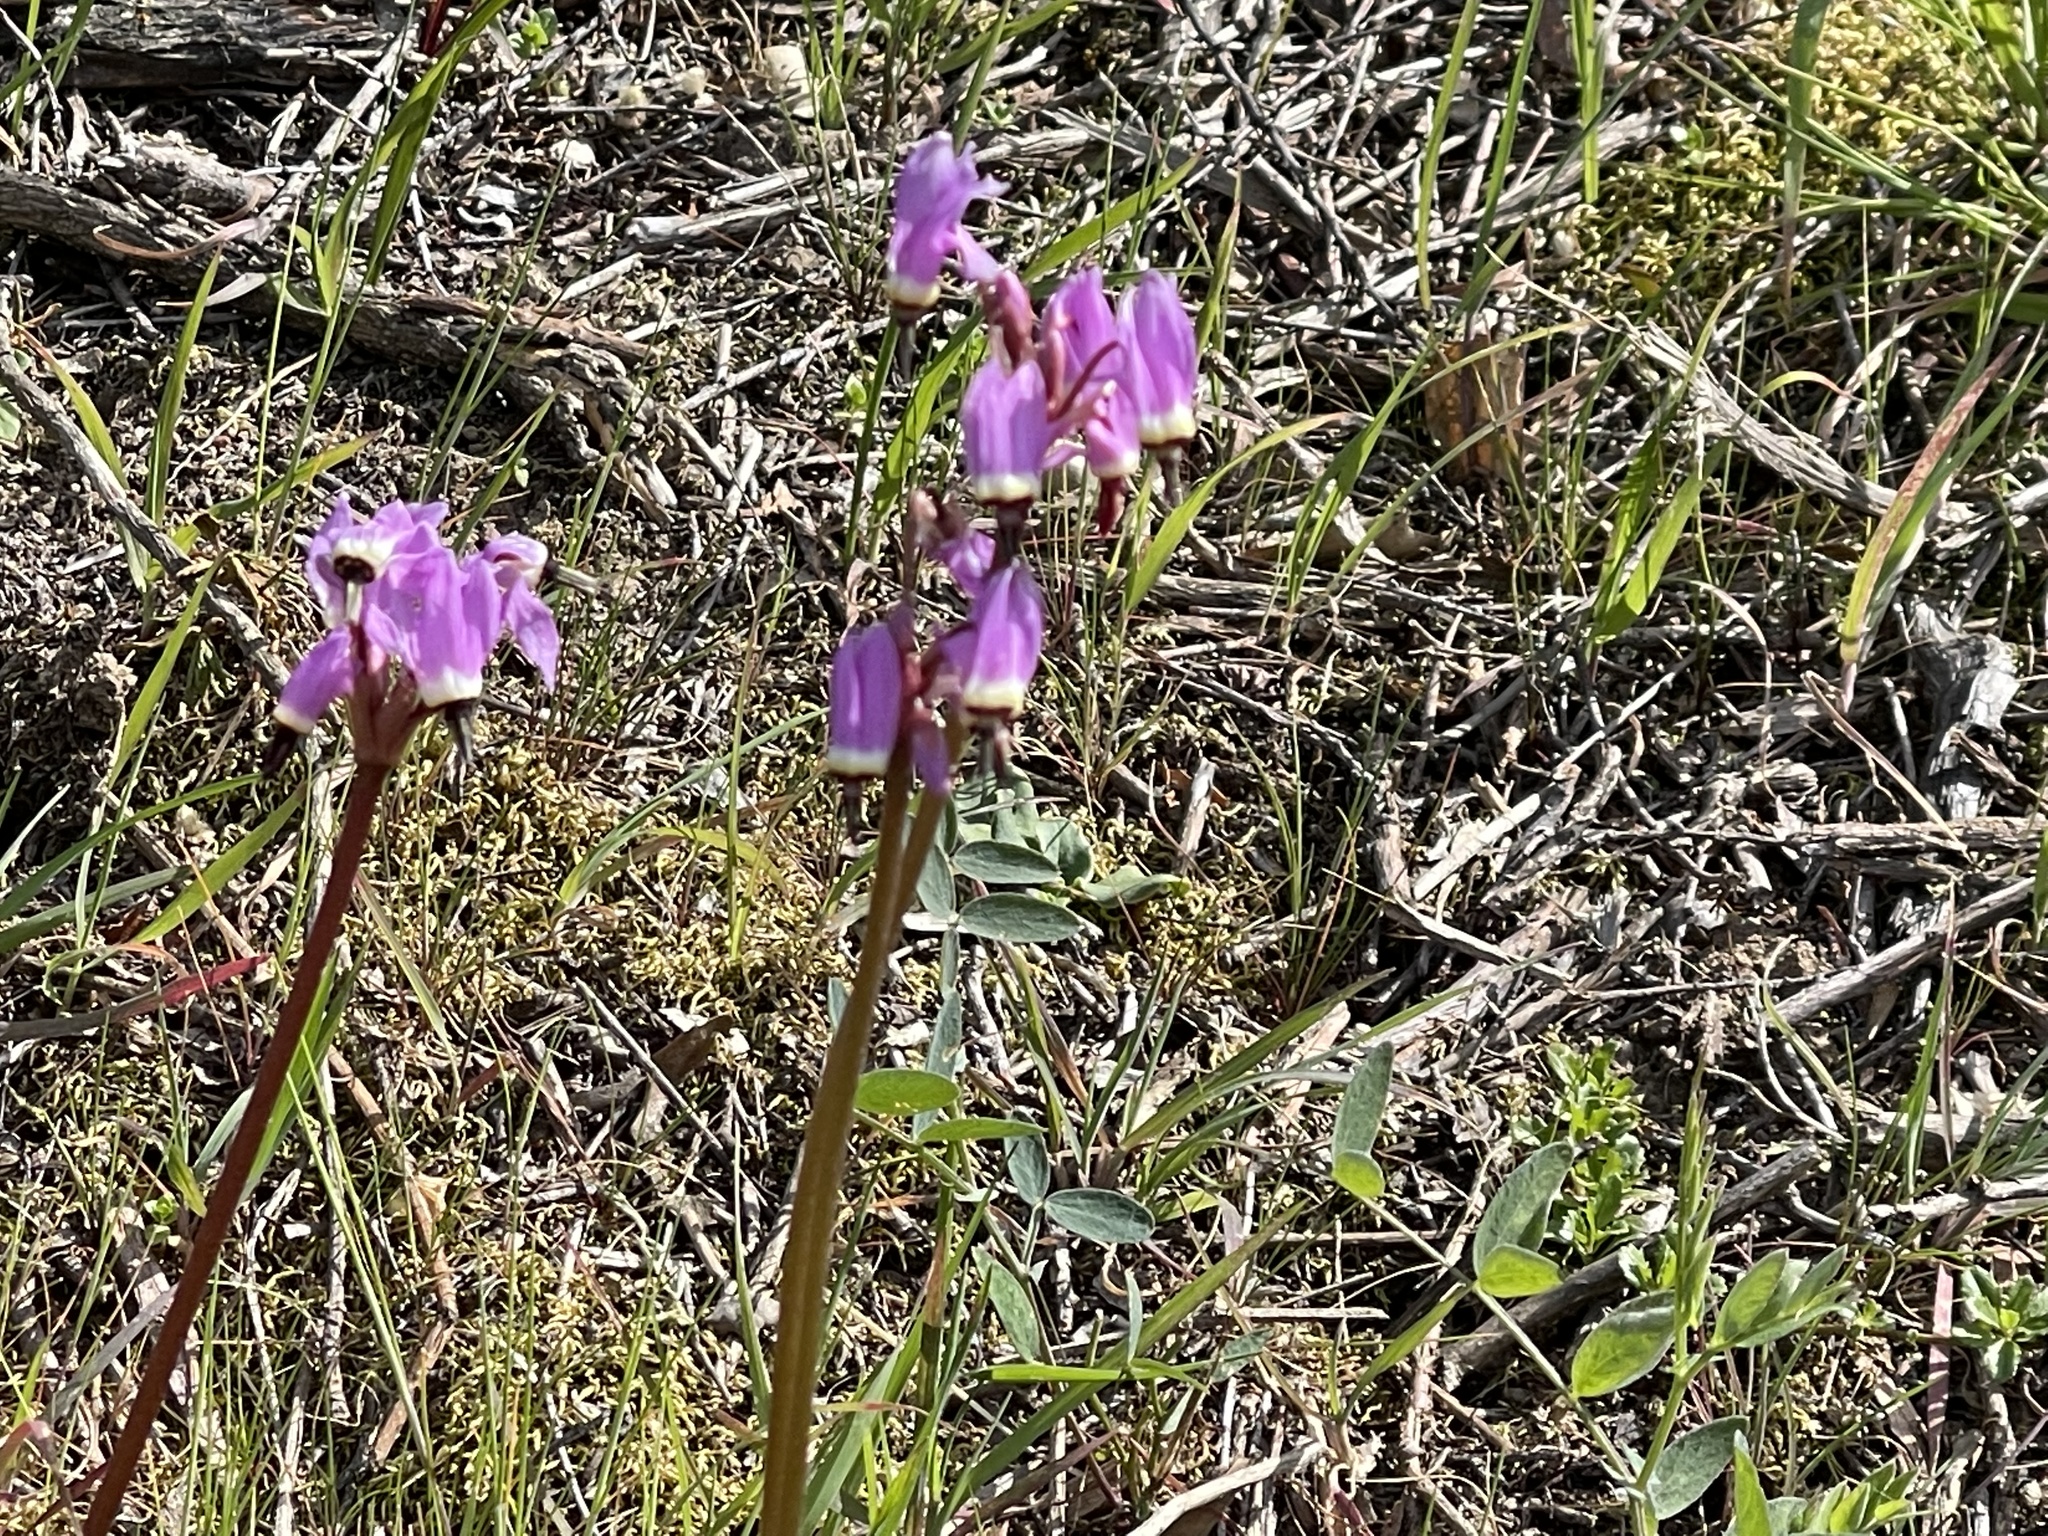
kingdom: Plantae
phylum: Tracheophyta
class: Magnoliopsida
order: Ericales
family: Primulaceae
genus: Dodecatheon
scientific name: Dodecatheon hendersonii
